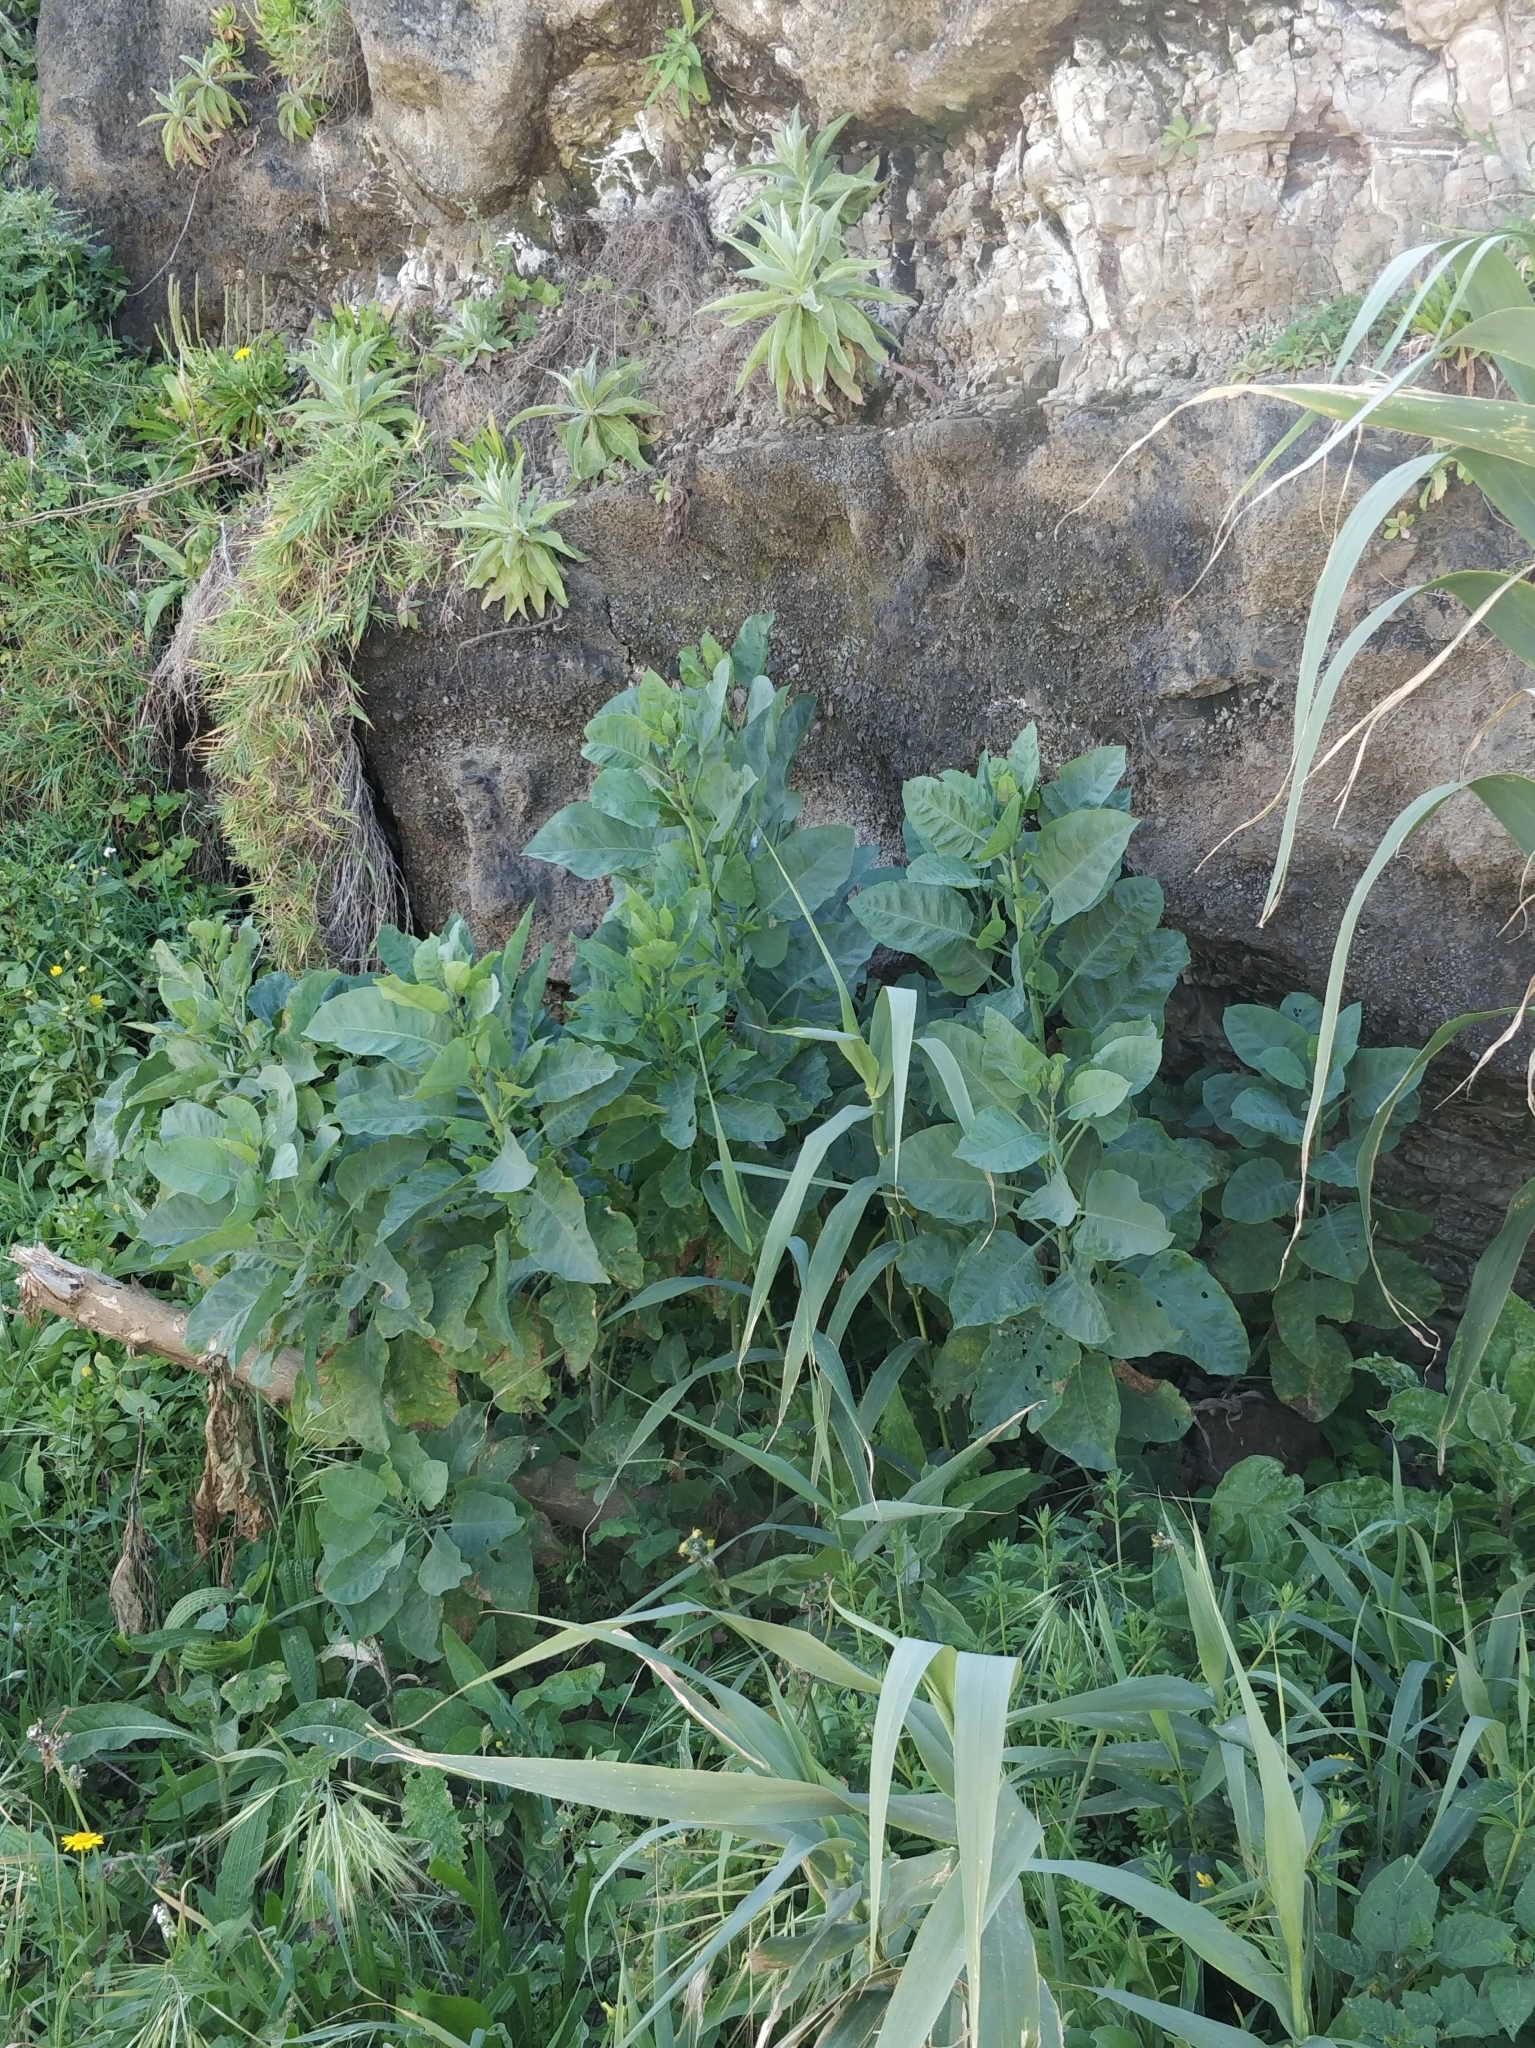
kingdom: Plantae
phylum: Tracheophyta
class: Magnoliopsida
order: Solanales
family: Solanaceae
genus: Nicotiana
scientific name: Nicotiana glauca
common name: Tree tobacco
